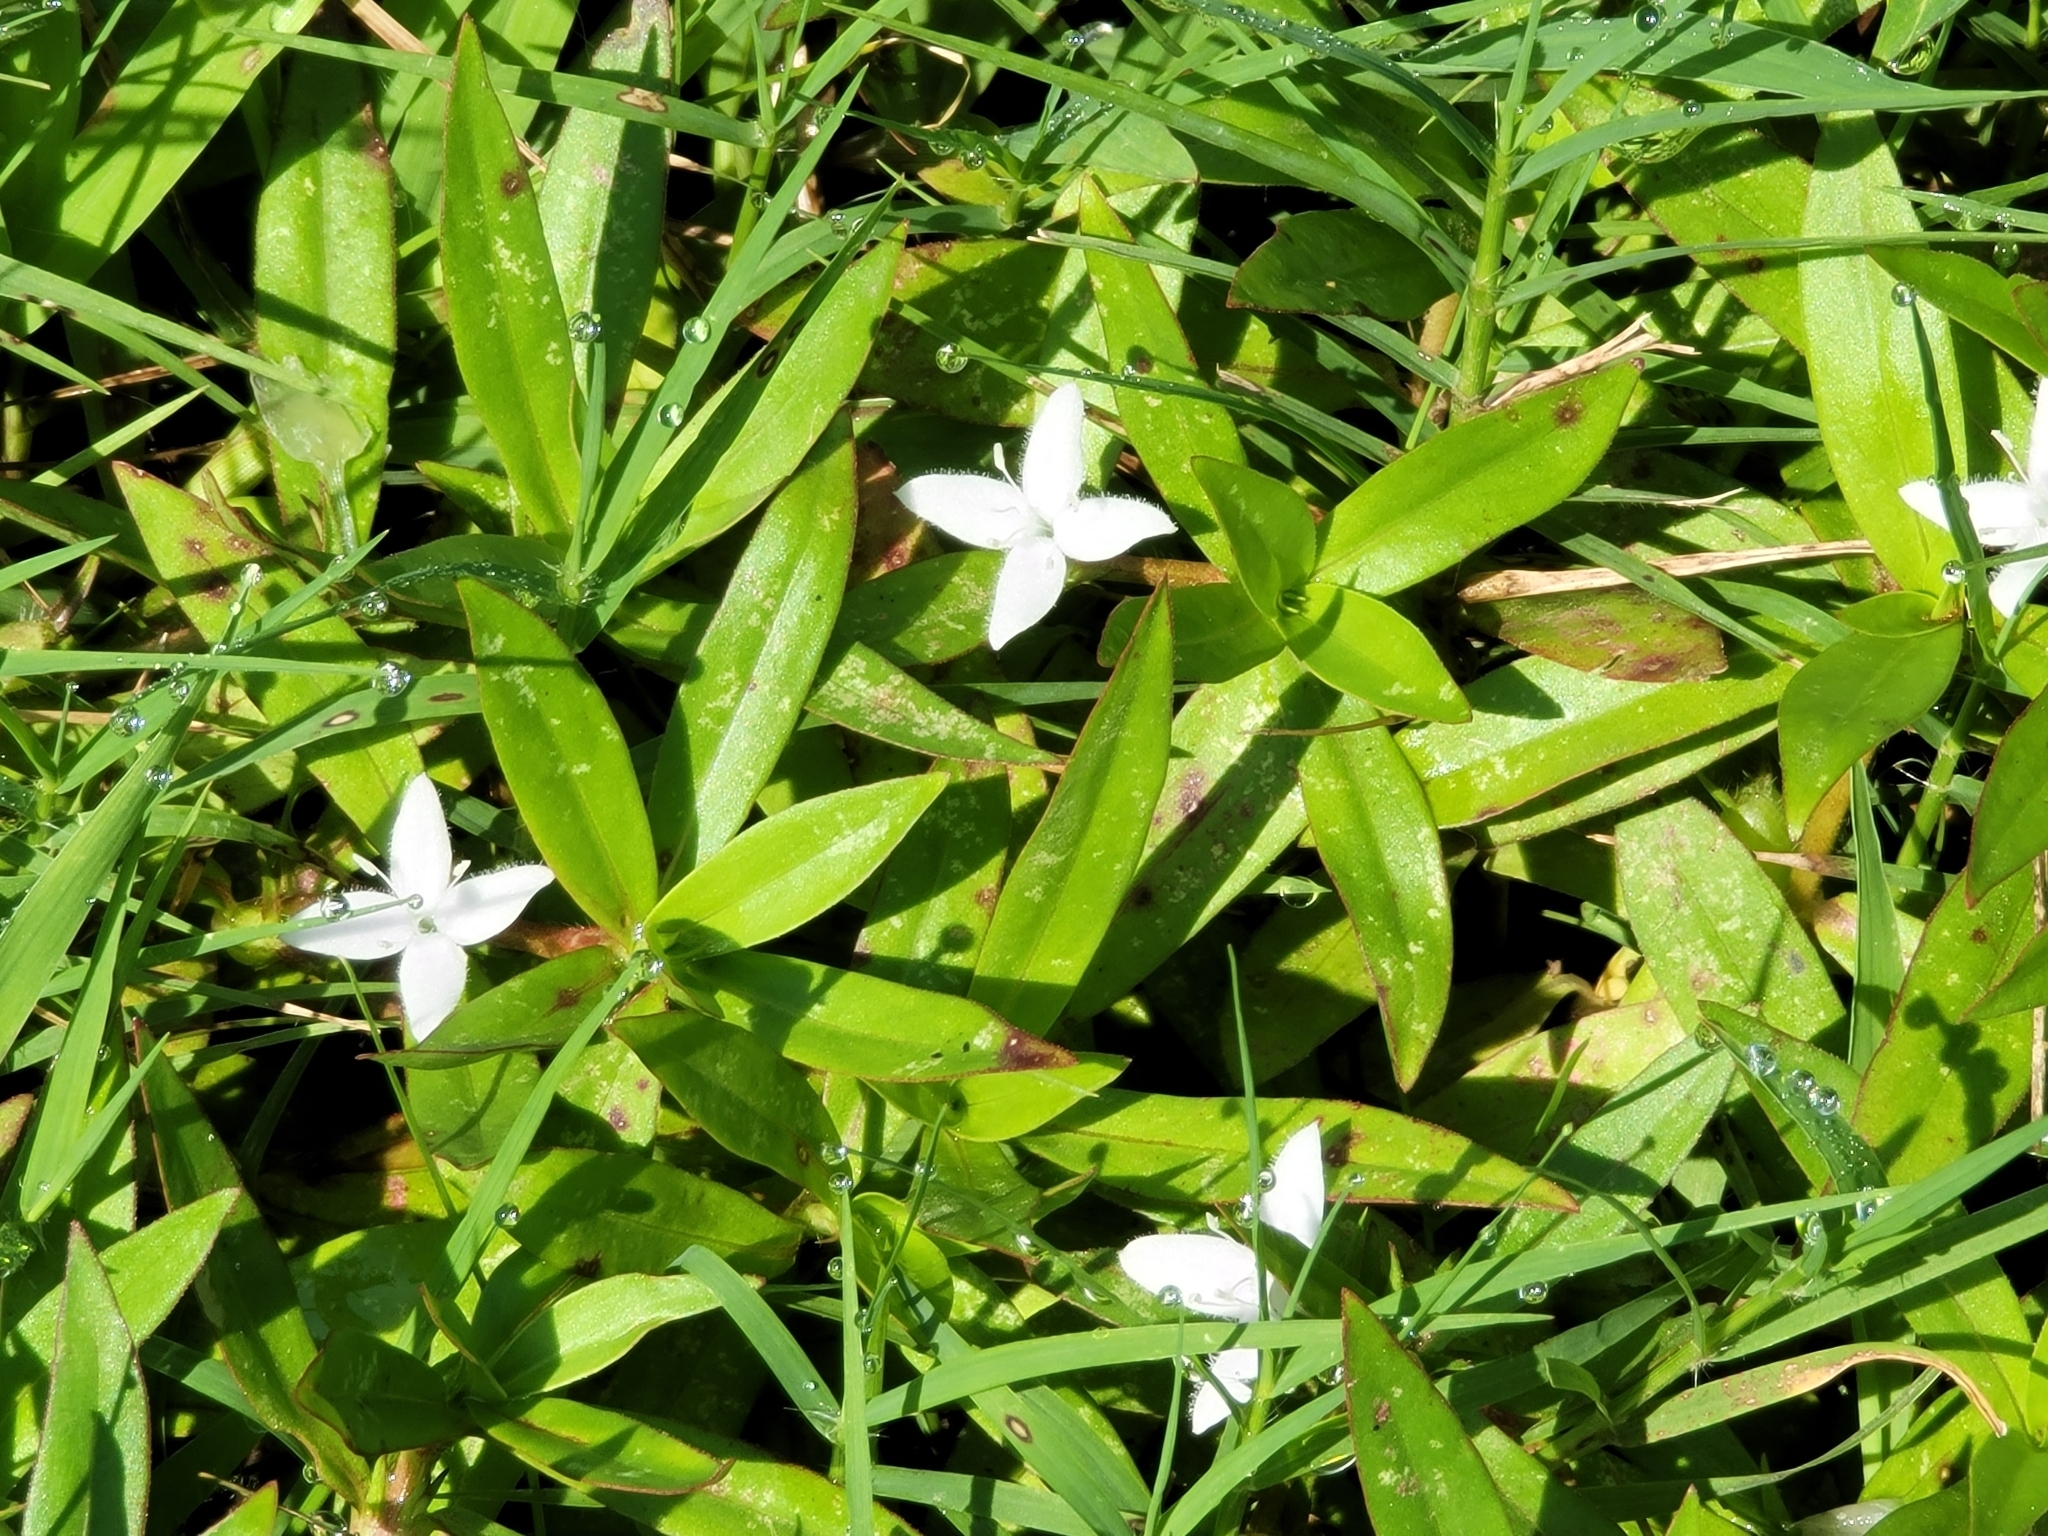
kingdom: Plantae
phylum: Tracheophyta
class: Magnoliopsida
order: Gentianales
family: Rubiaceae
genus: Diodia
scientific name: Diodia virginiana
